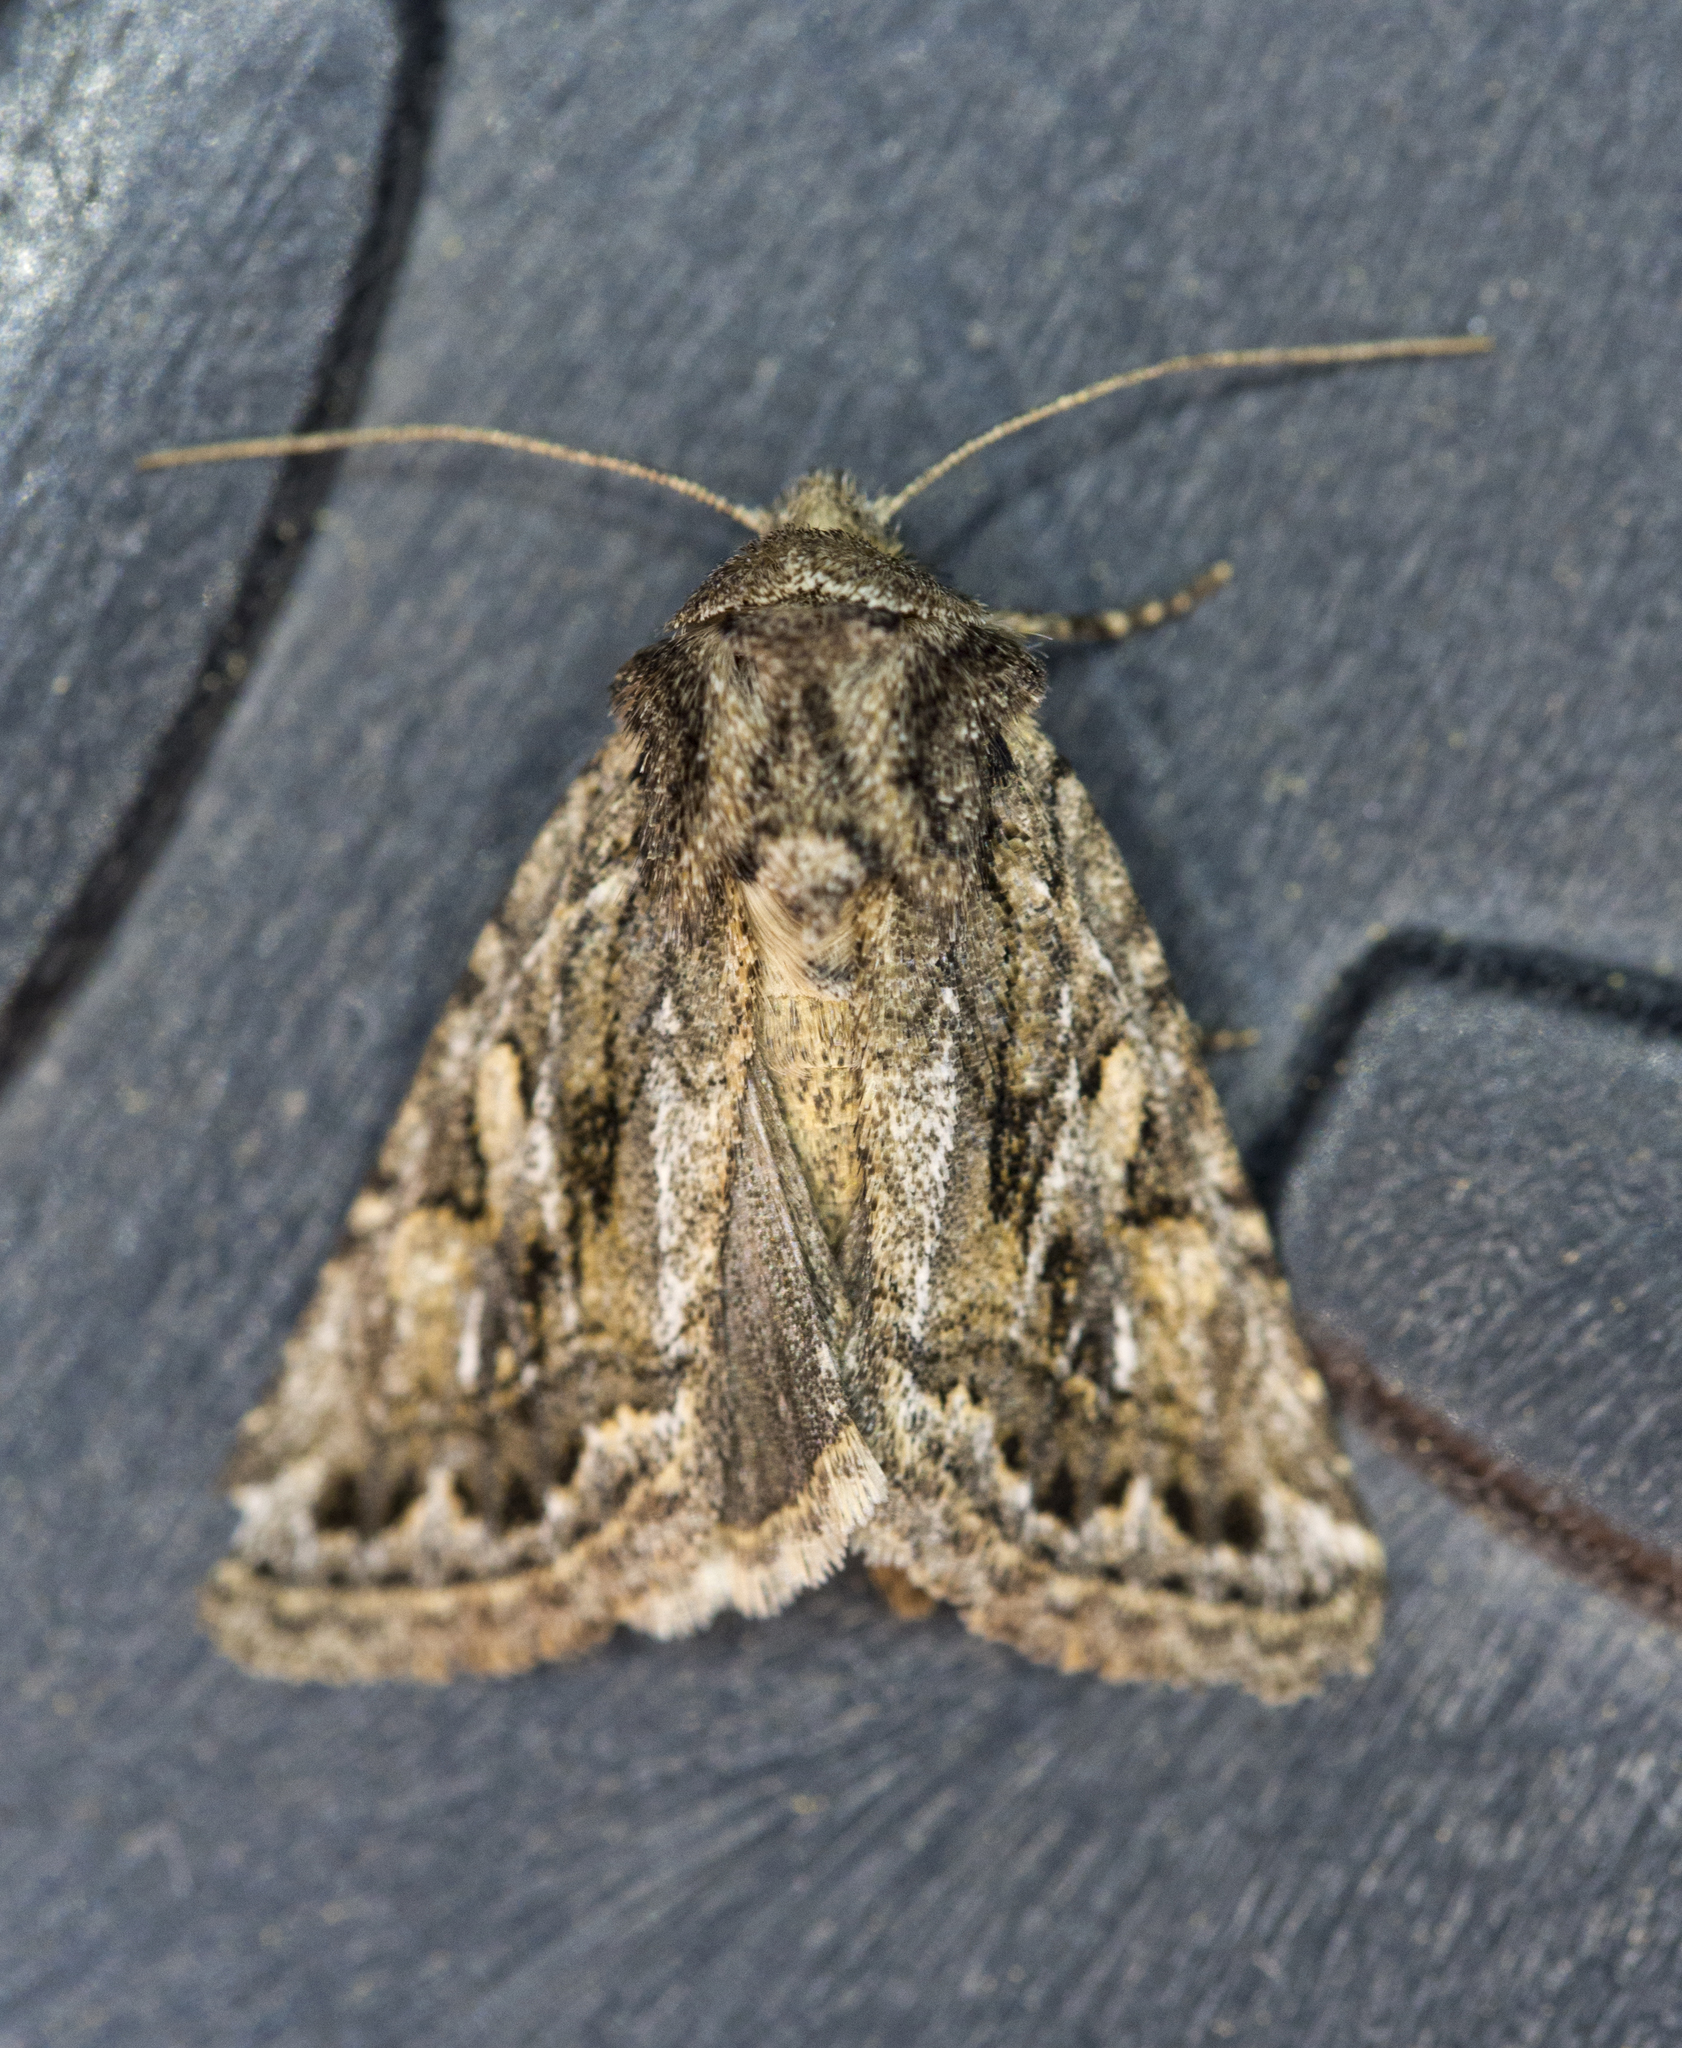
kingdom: Animalia
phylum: Arthropoda
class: Insecta
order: Lepidoptera
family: Noctuidae
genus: Ulolonche
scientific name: Ulolonche orbiculata
